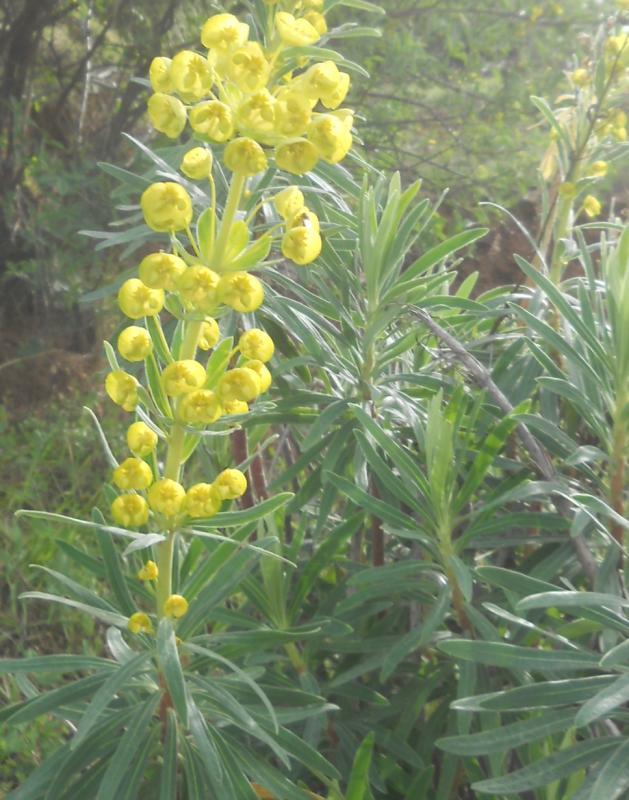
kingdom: Plantae
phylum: Tracheophyta
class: Magnoliopsida
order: Malpighiales
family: Euphorbiaceae
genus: Euphorbia
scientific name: Euphorbia characias
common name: Mediterranean spurge
